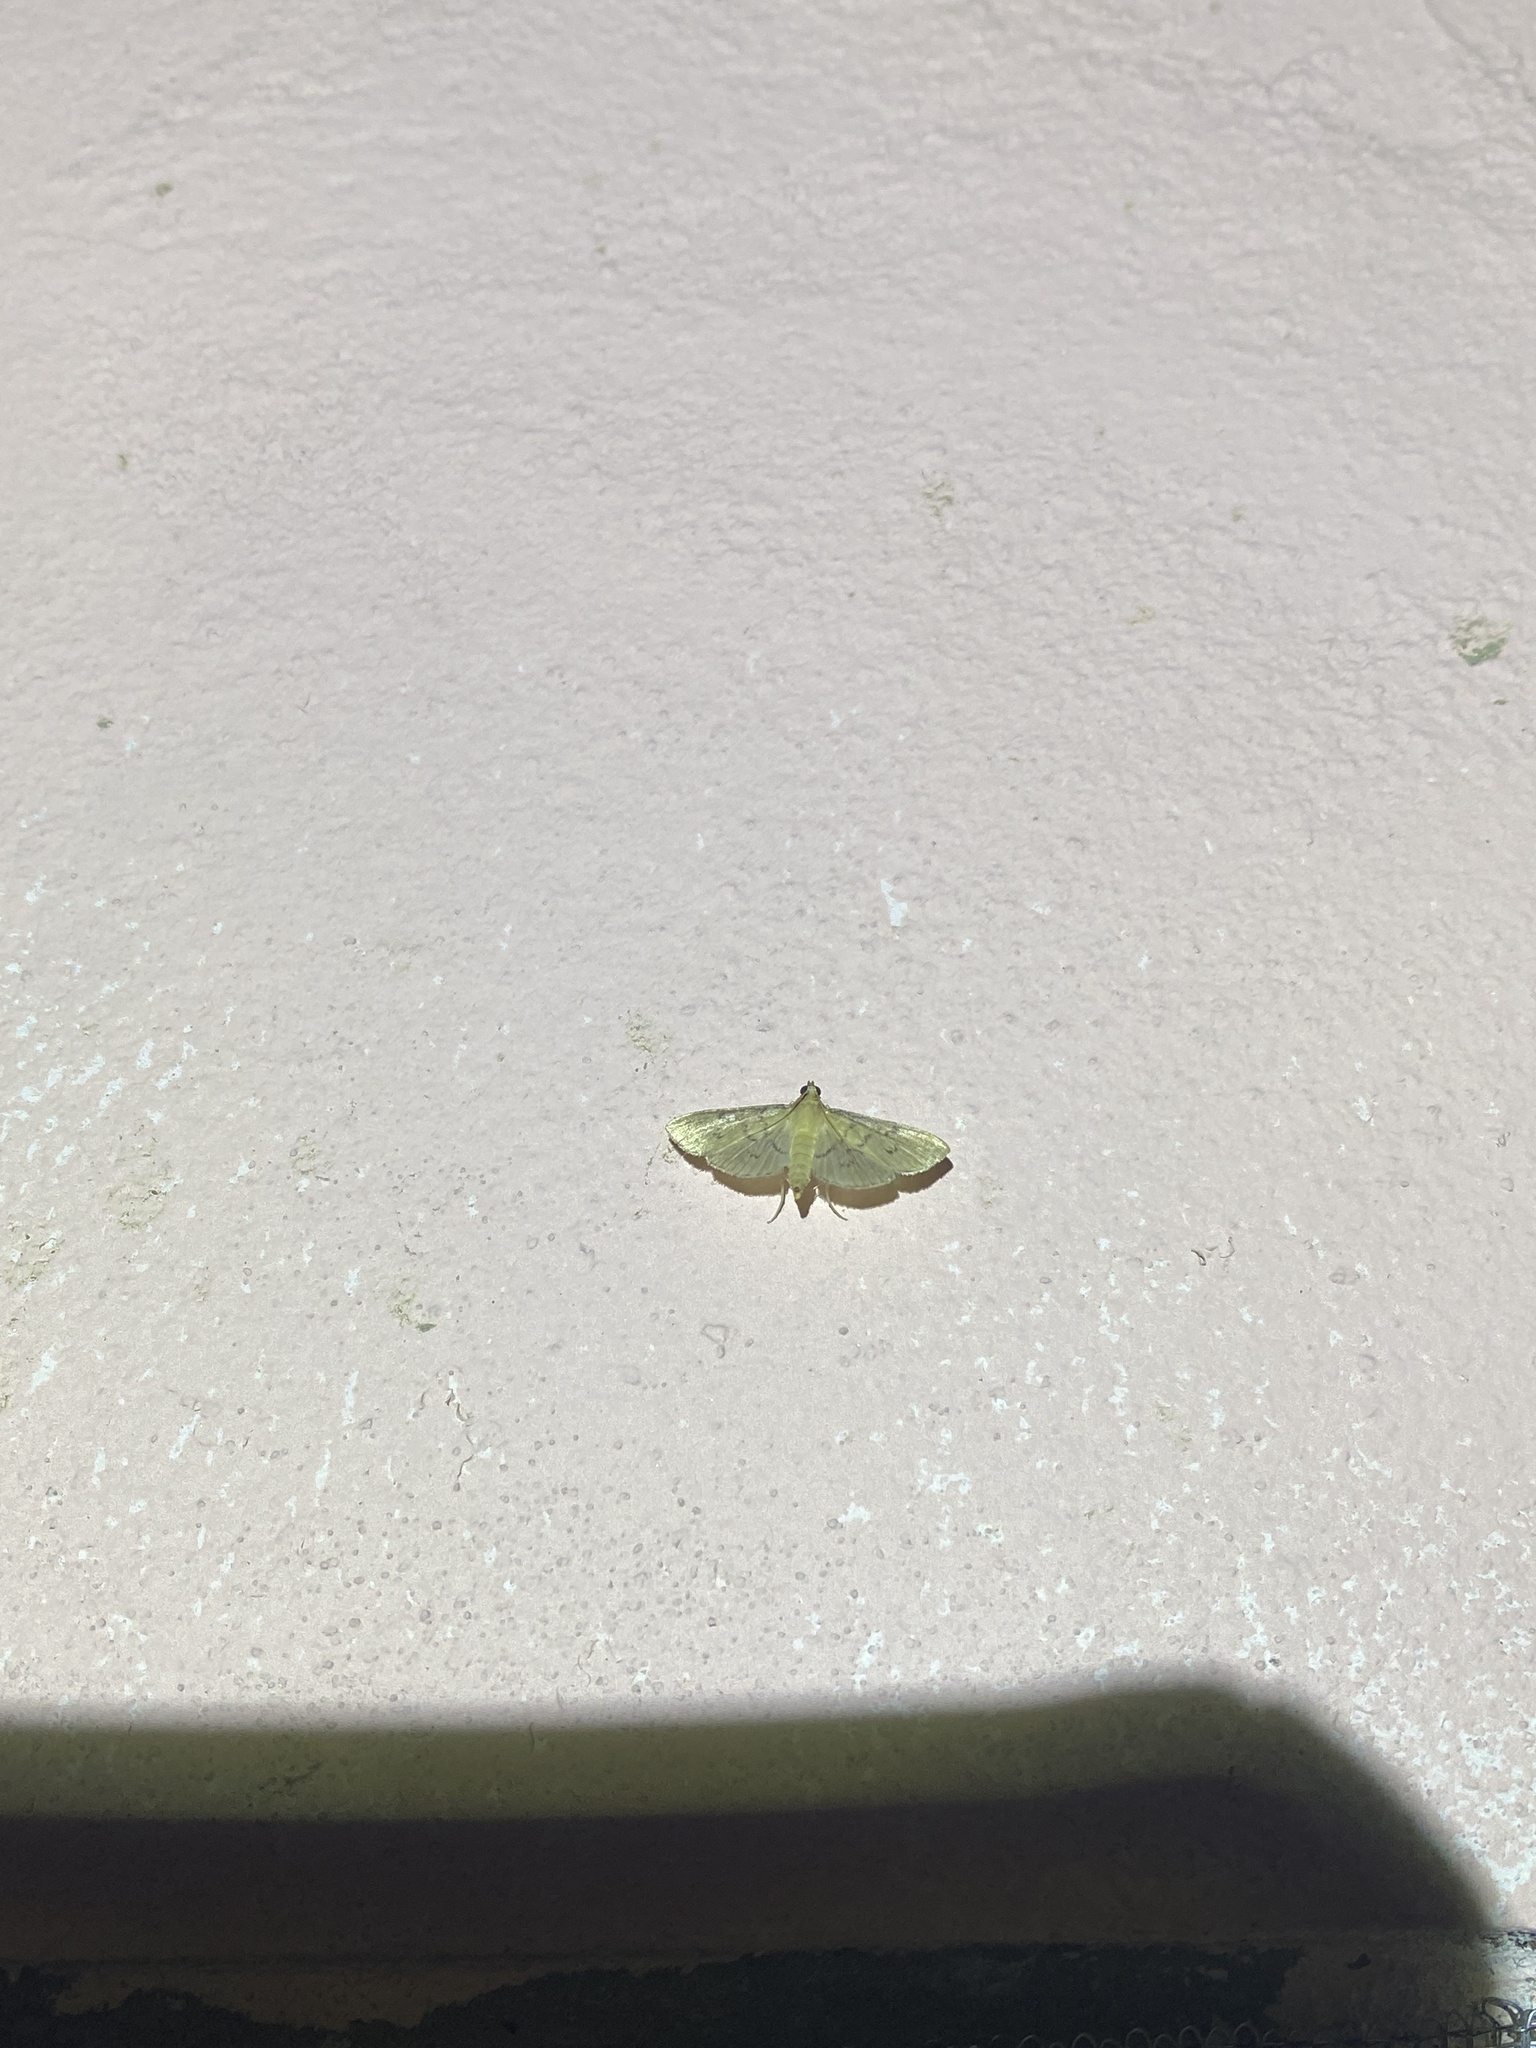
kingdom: Animalia
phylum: Arthropoda
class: Insecta
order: Lepidoptera
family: Crambidae
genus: Microthyris
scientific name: Microthyris prolongalis
